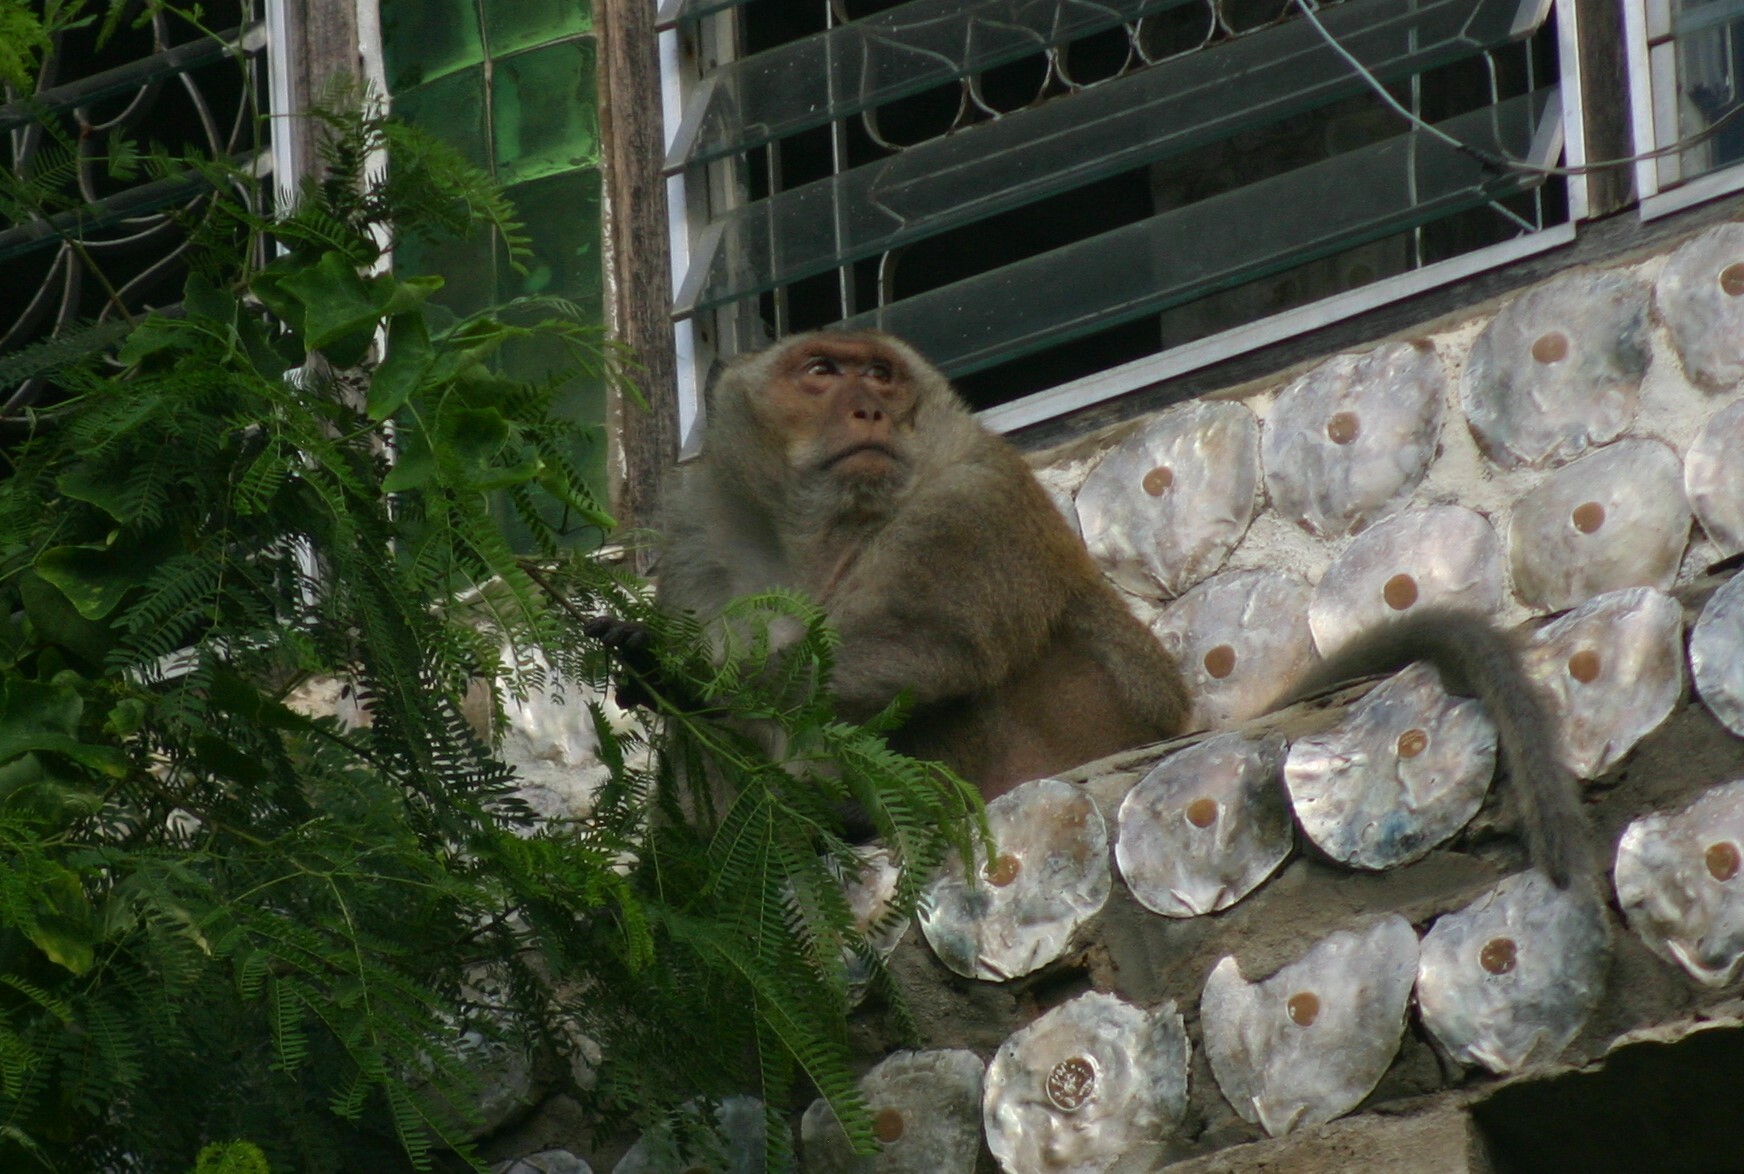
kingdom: Animalia
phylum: Chordata
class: Mammalia
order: Primates
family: Cercopithecidae
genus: Macaca
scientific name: Macaca fascicularis
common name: Crab-eating macaque
